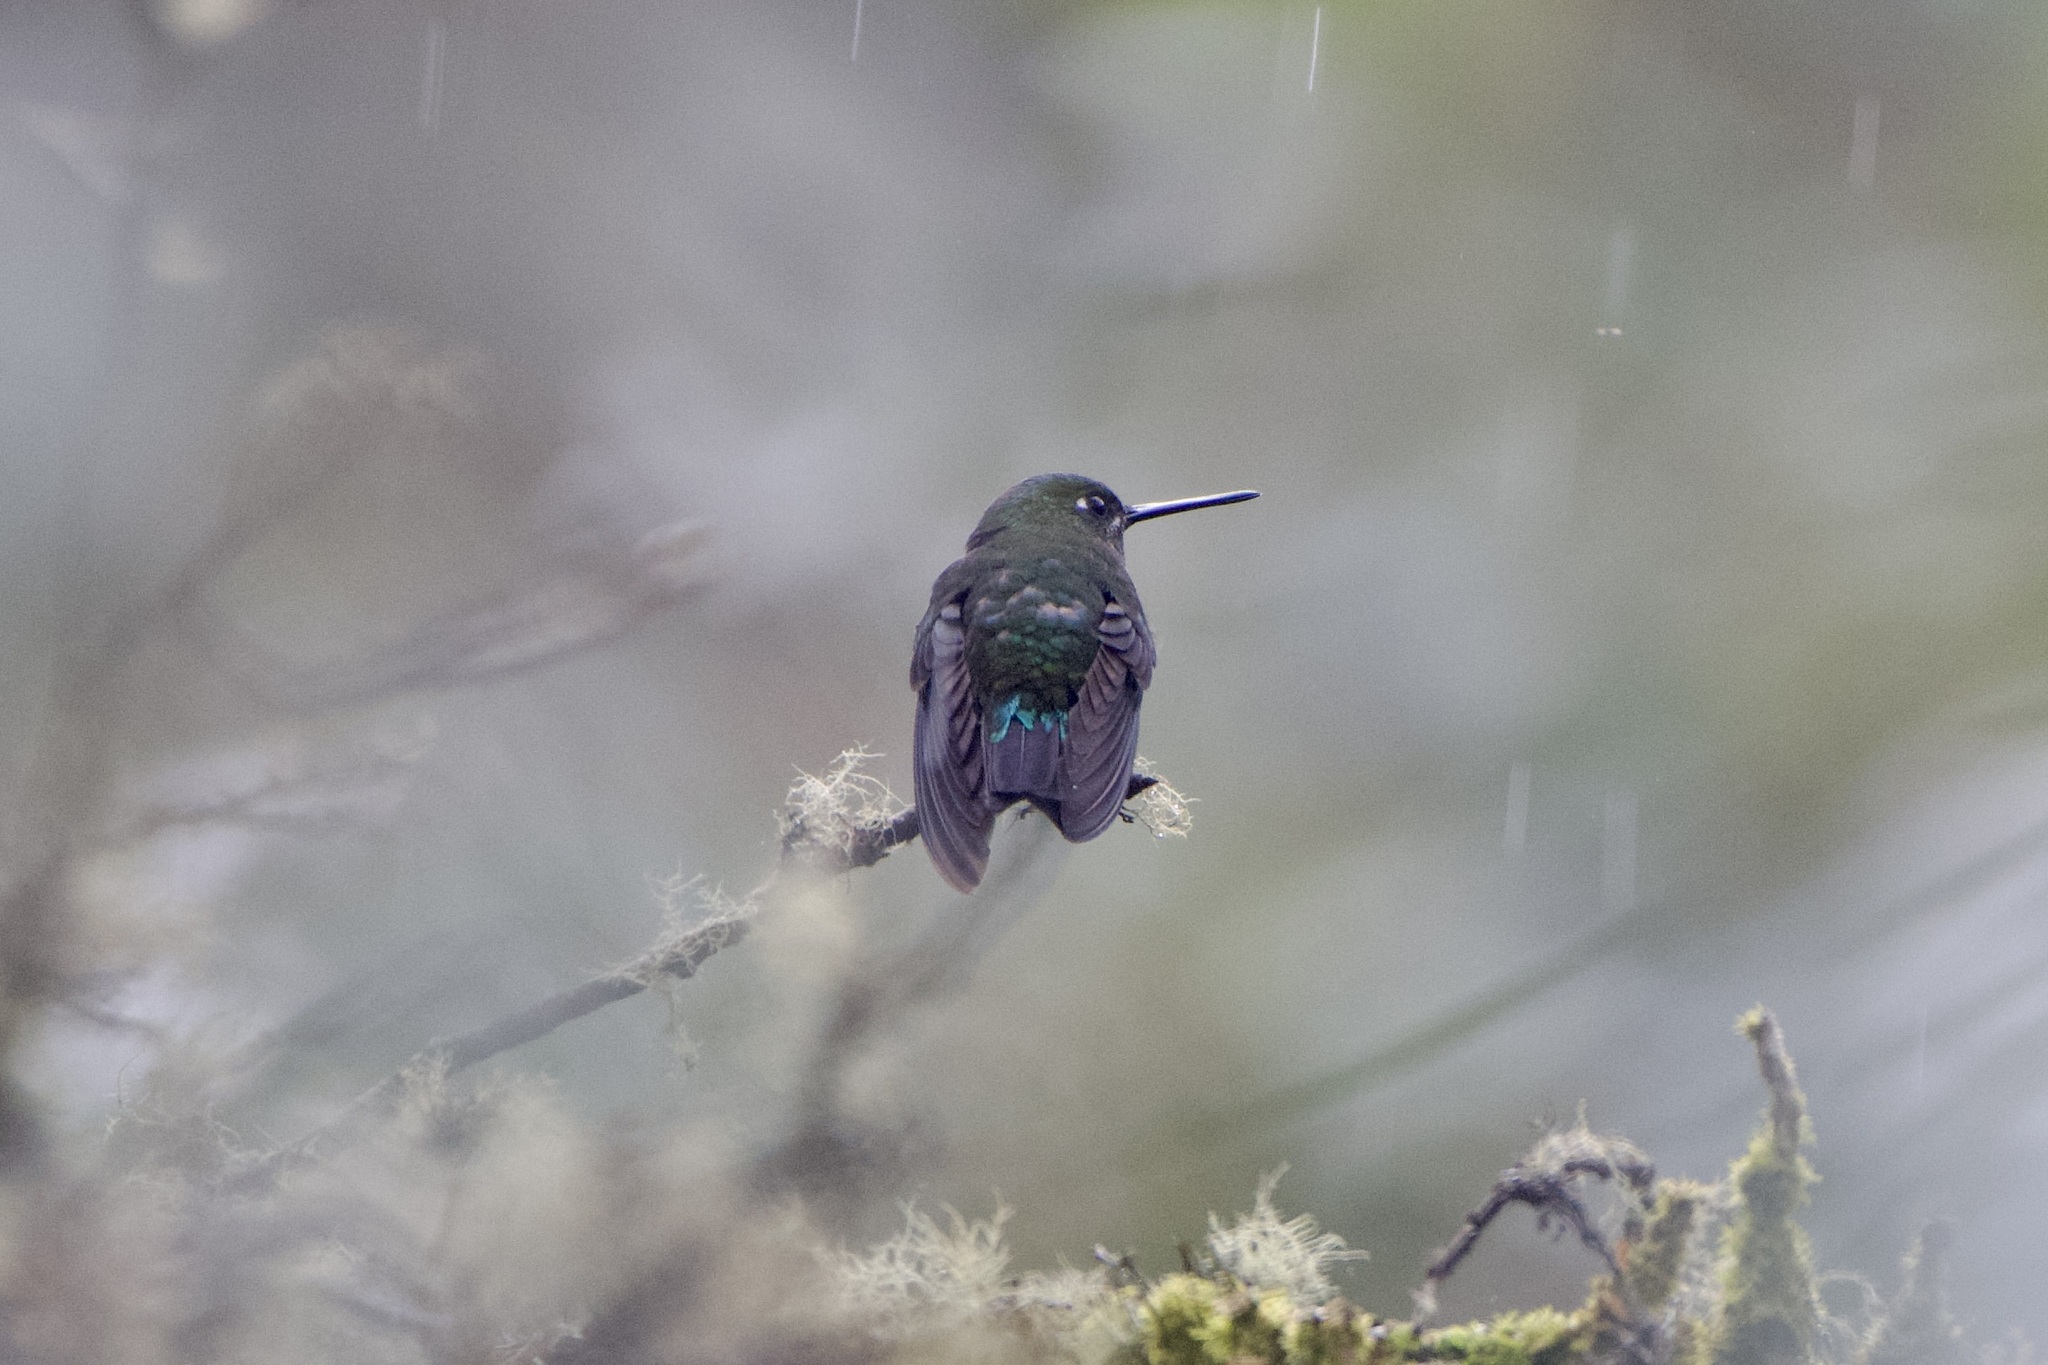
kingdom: Animalia
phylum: Chordata
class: Aves
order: Apodiformes
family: Trochilidae
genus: Metallura
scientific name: Metallura williami
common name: Viridian metaltail
